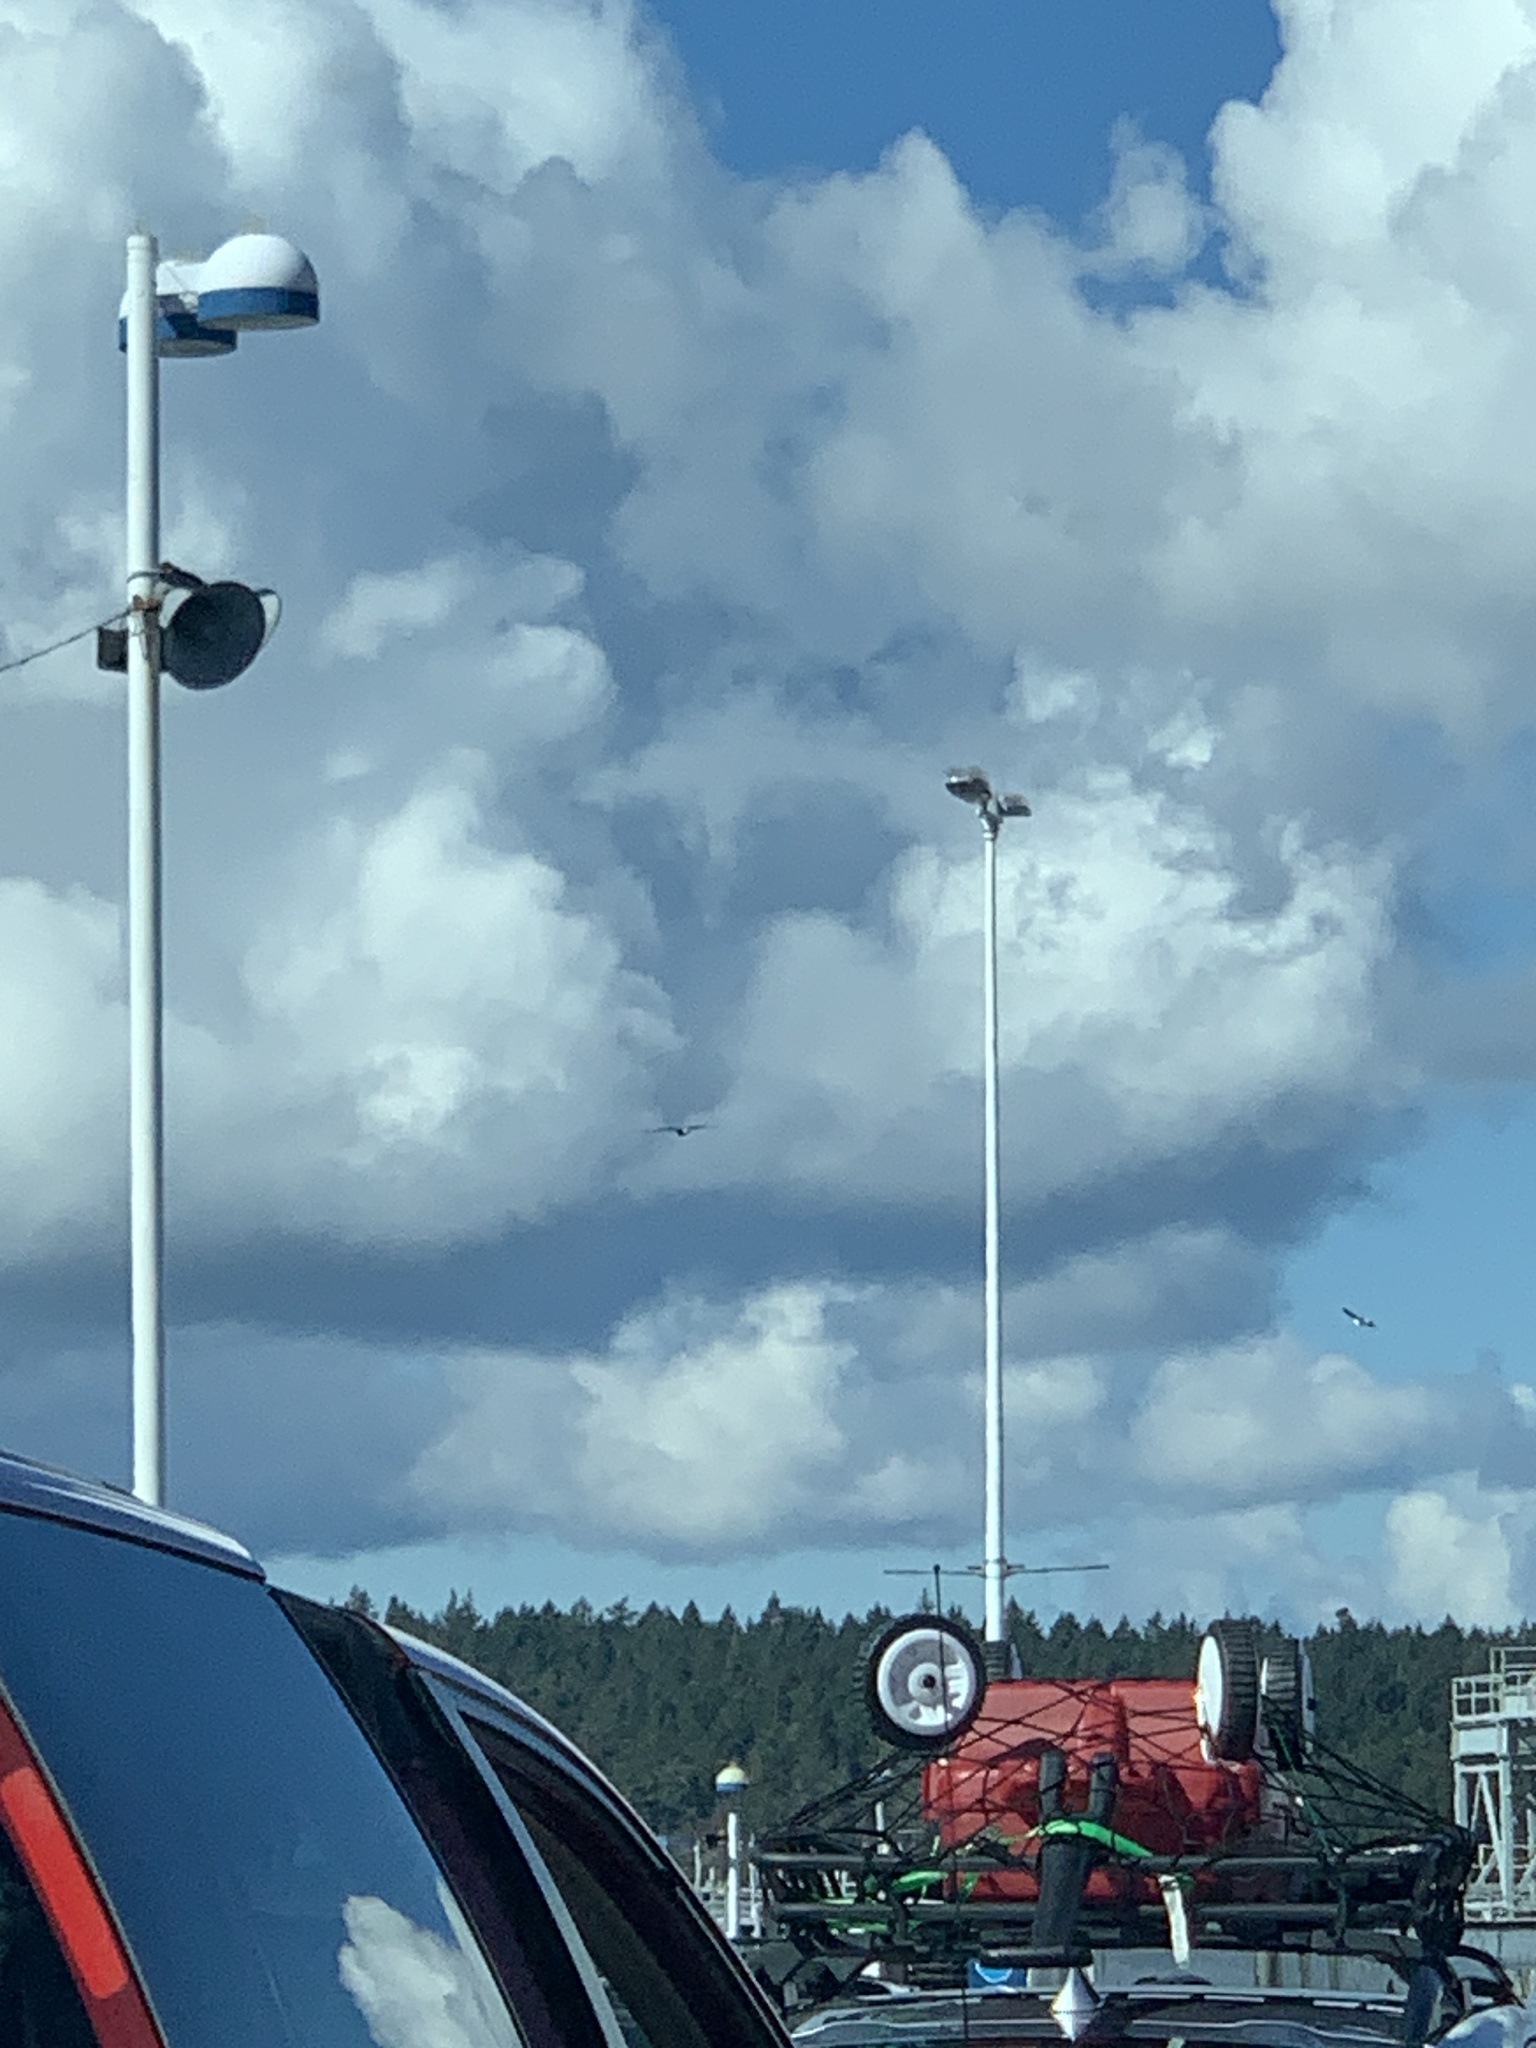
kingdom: Animalia
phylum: Chordata
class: Aves
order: Accipitriformes
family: Accipitridae
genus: Haliaeetus
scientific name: Haliaeetus leucocephalus
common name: Bald eagle
